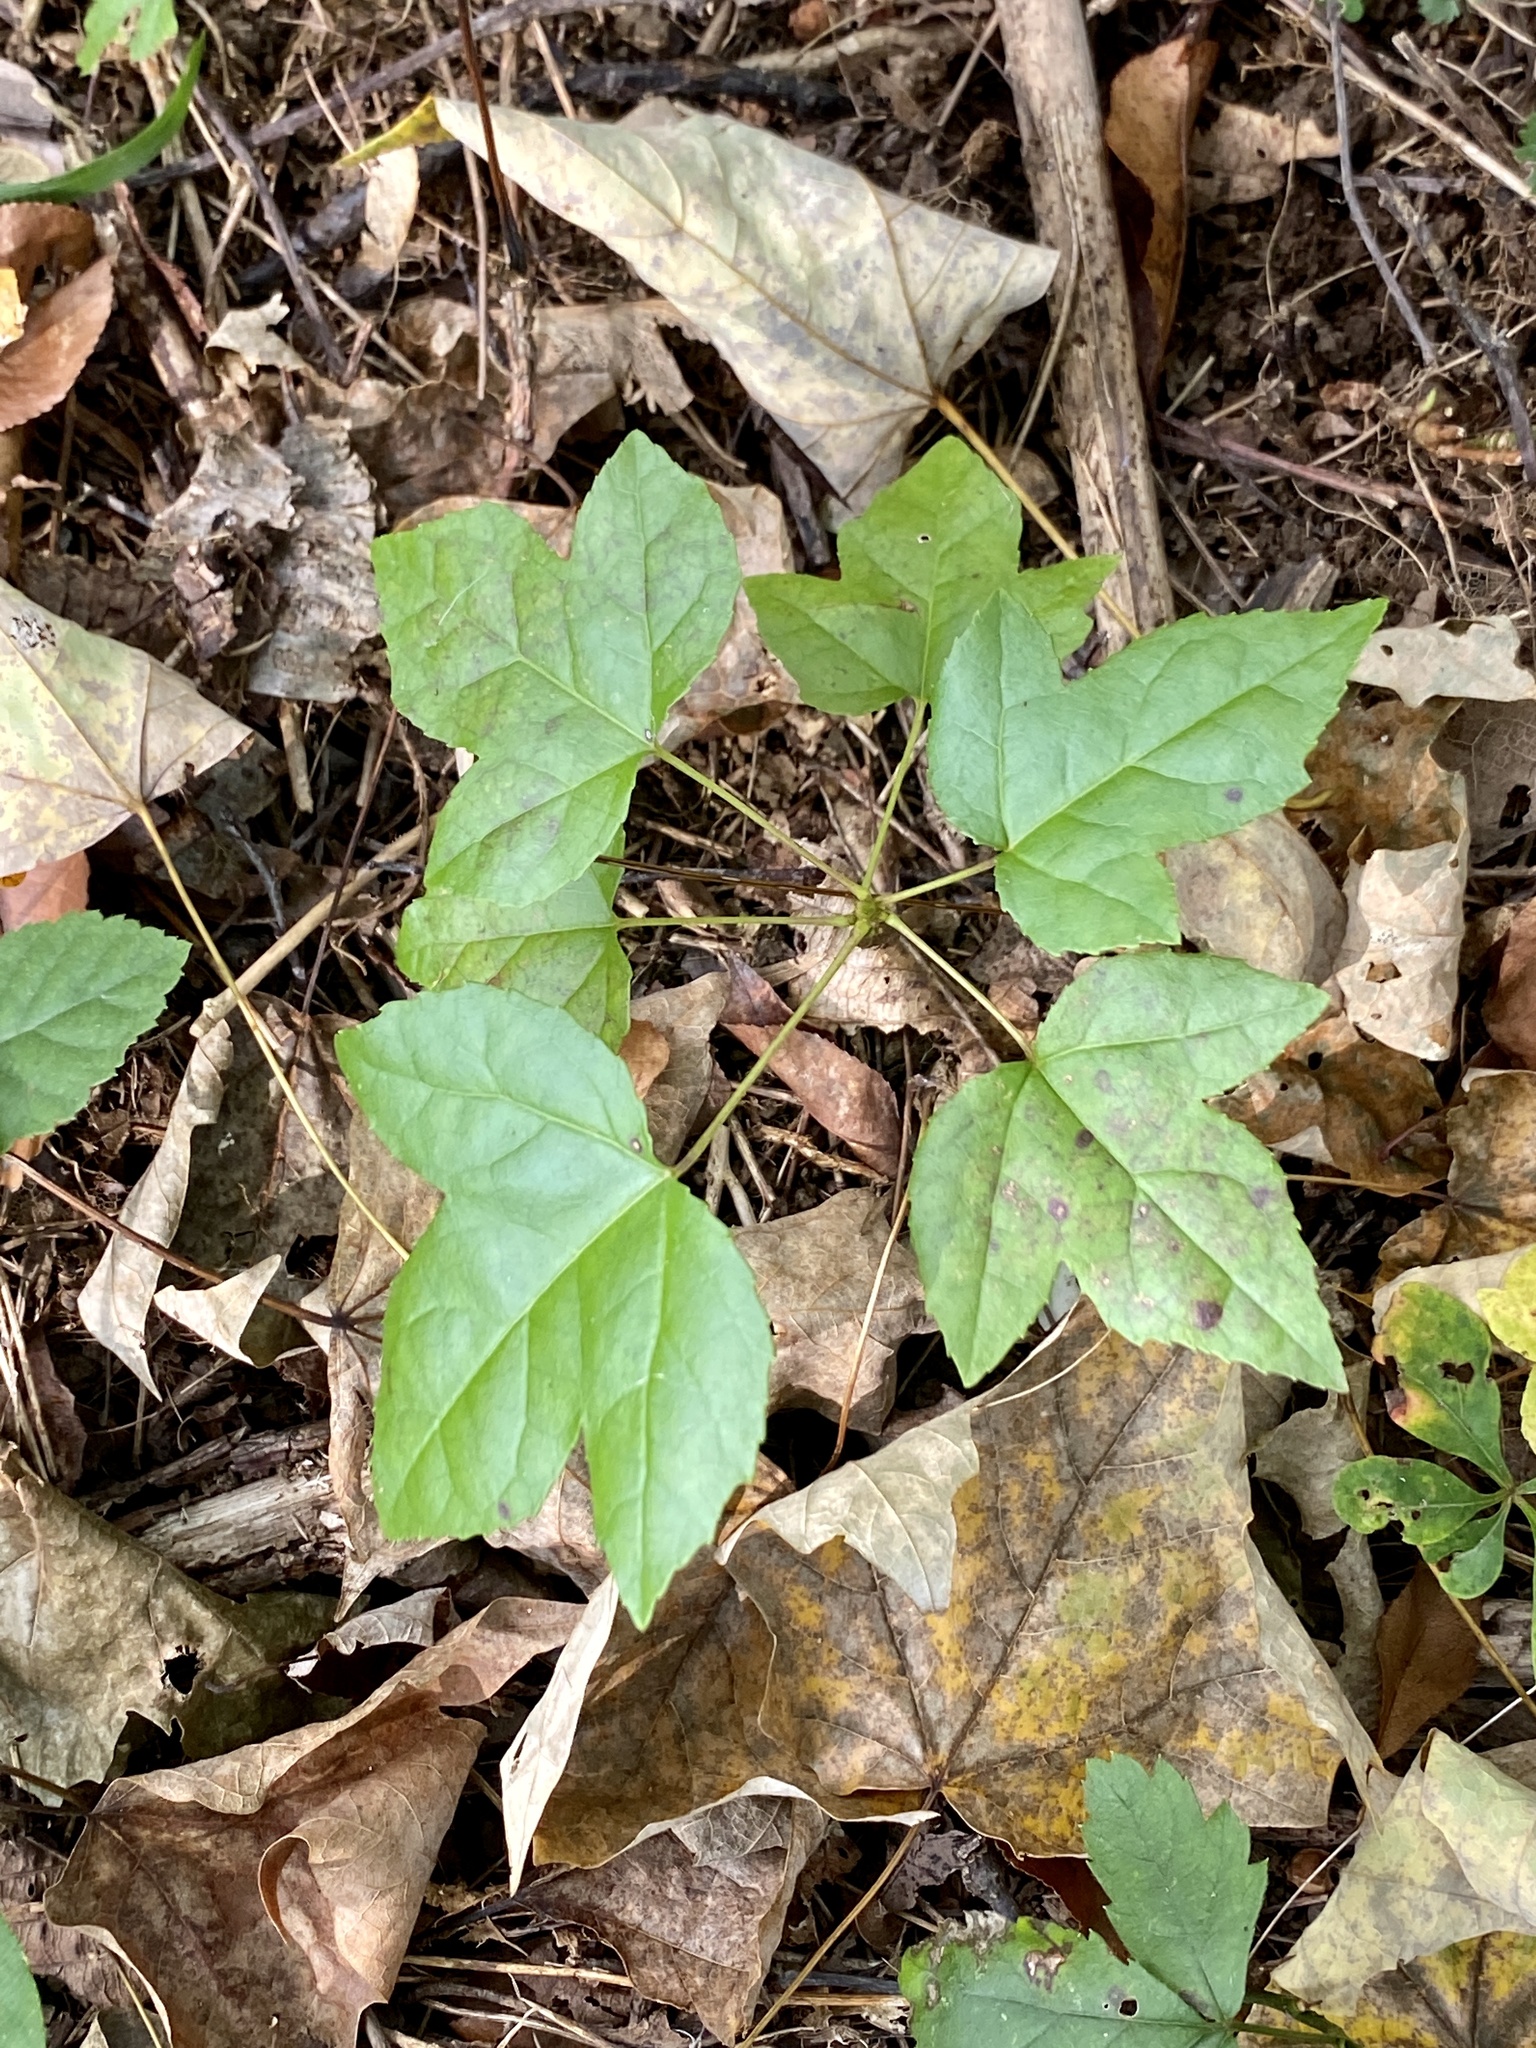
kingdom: Plantae
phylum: Tracheophyta
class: Magnoliopsida
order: Saxifragales
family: Altingiaceae
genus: Liquidambar
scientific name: Liquidambar styraciflua
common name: Sweet gum
